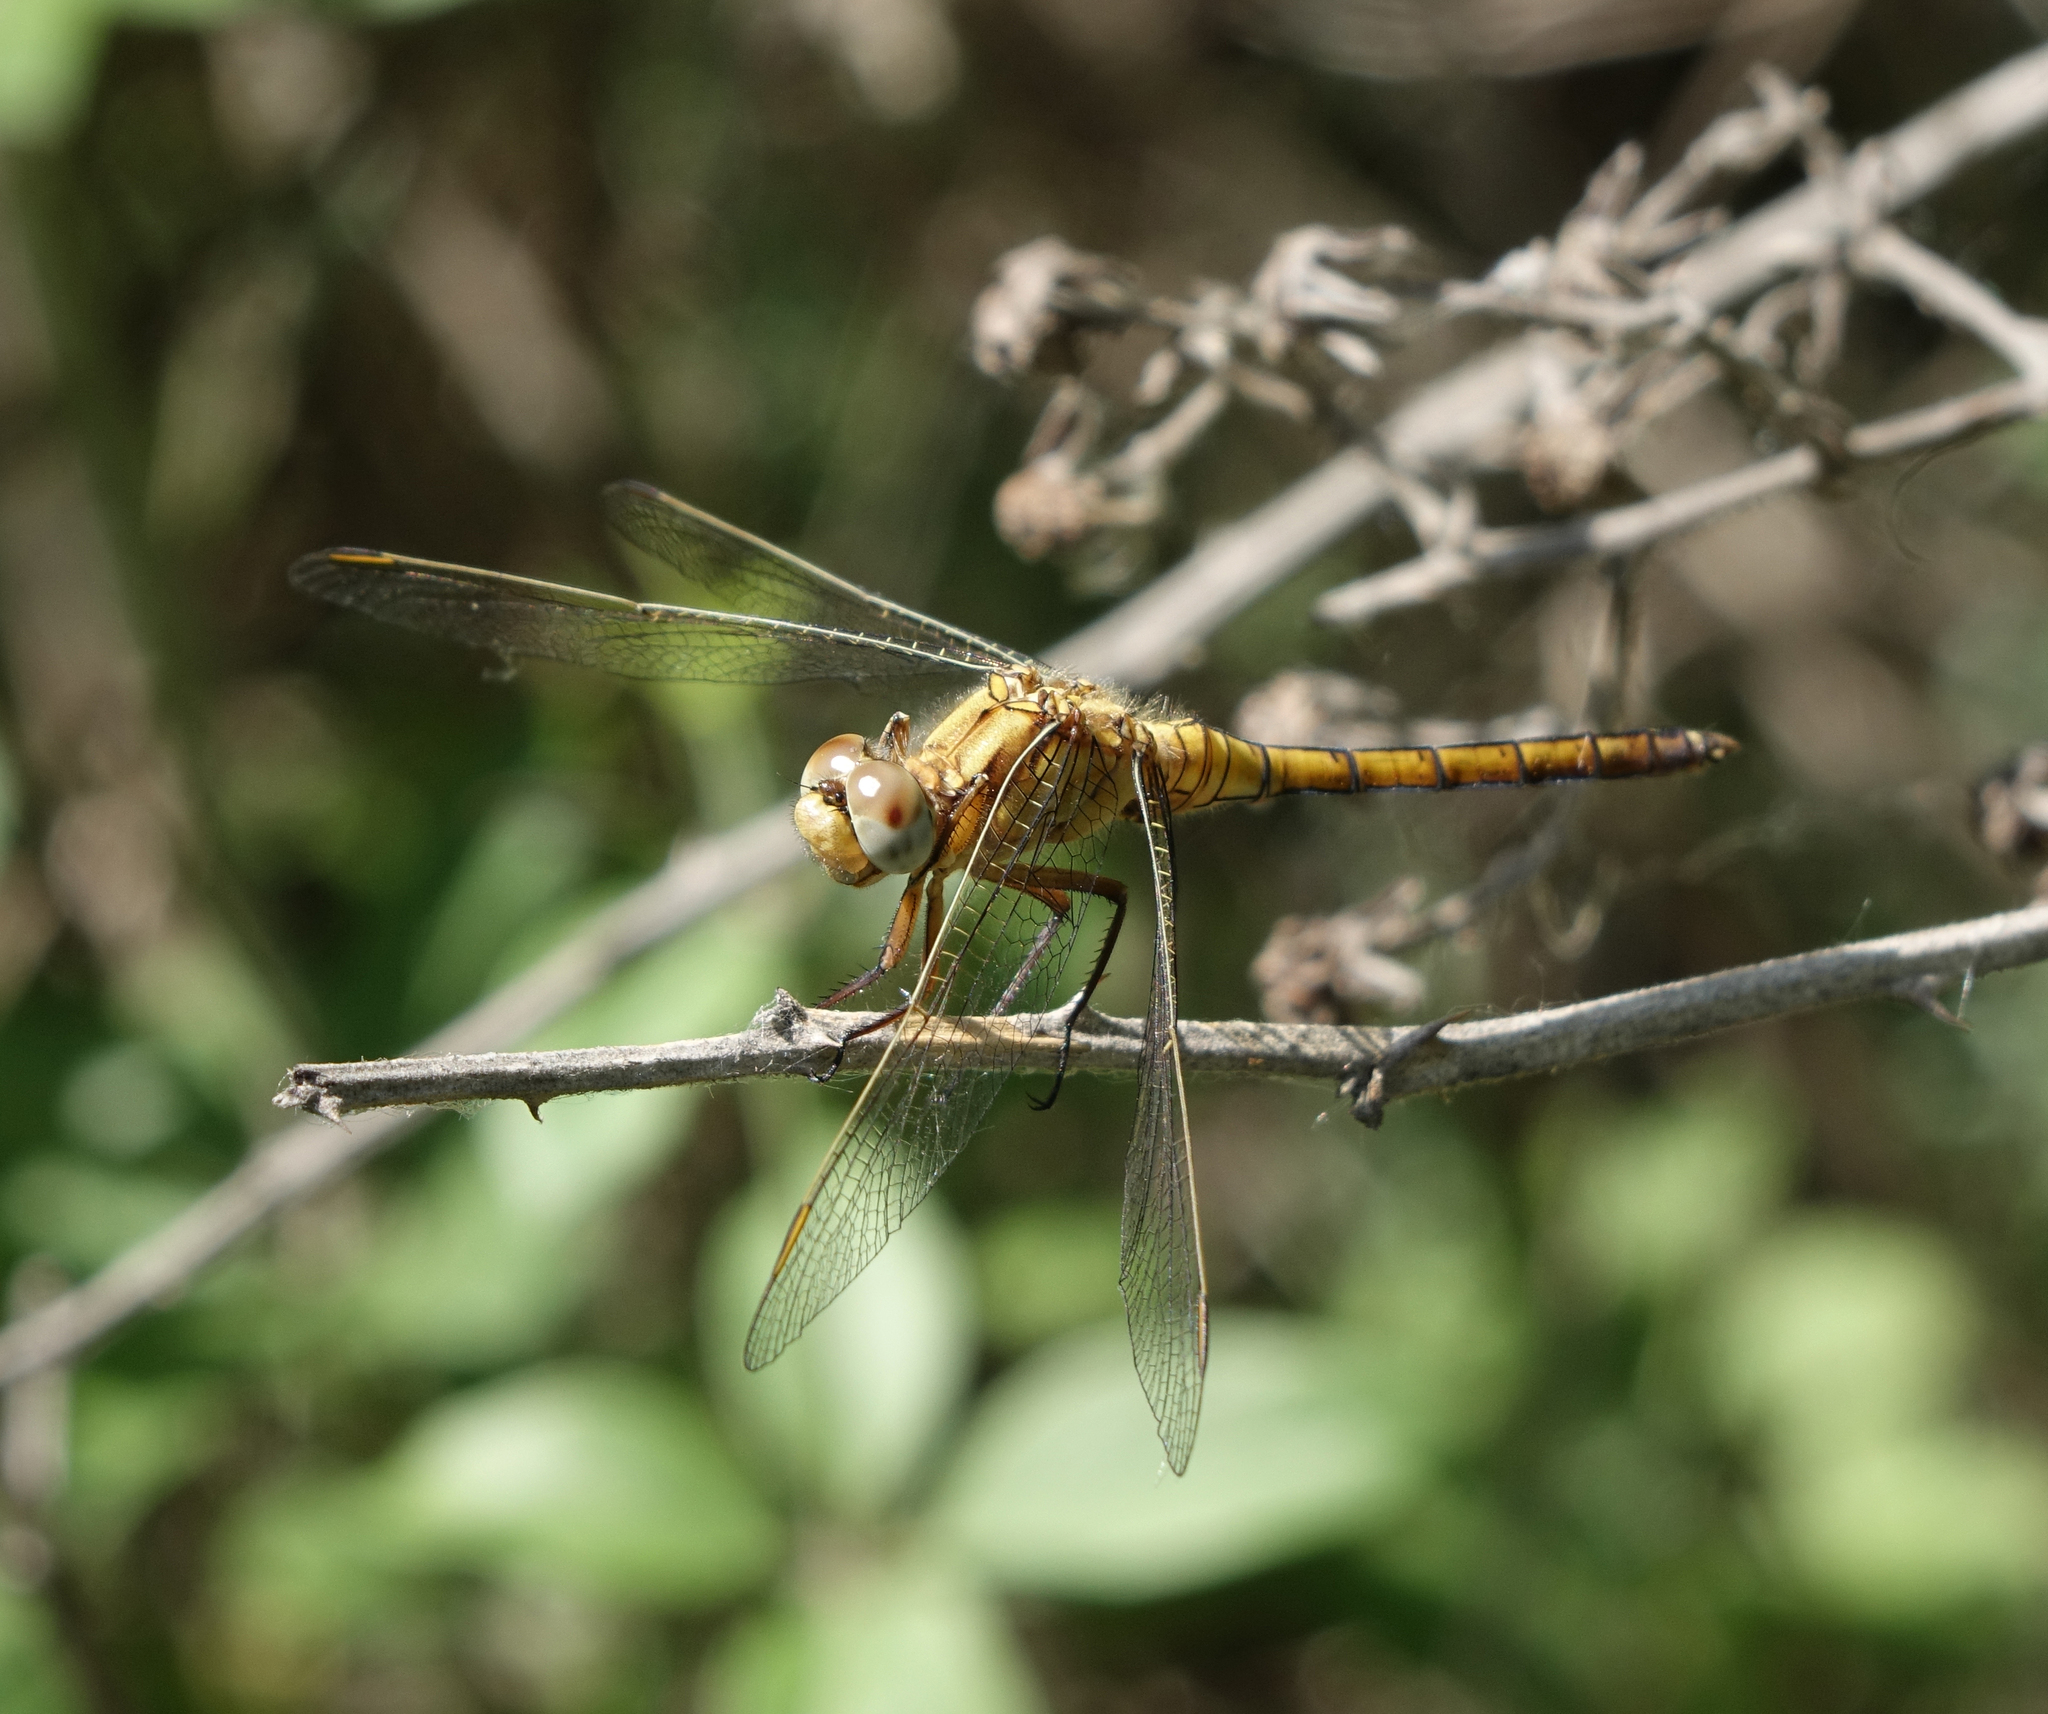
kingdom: Animalia
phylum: Arthropoda
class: Insecta
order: Odonata
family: Libellulidae
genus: Orthetrum
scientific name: Orthetrum coerulescens
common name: Keeled skimmer
